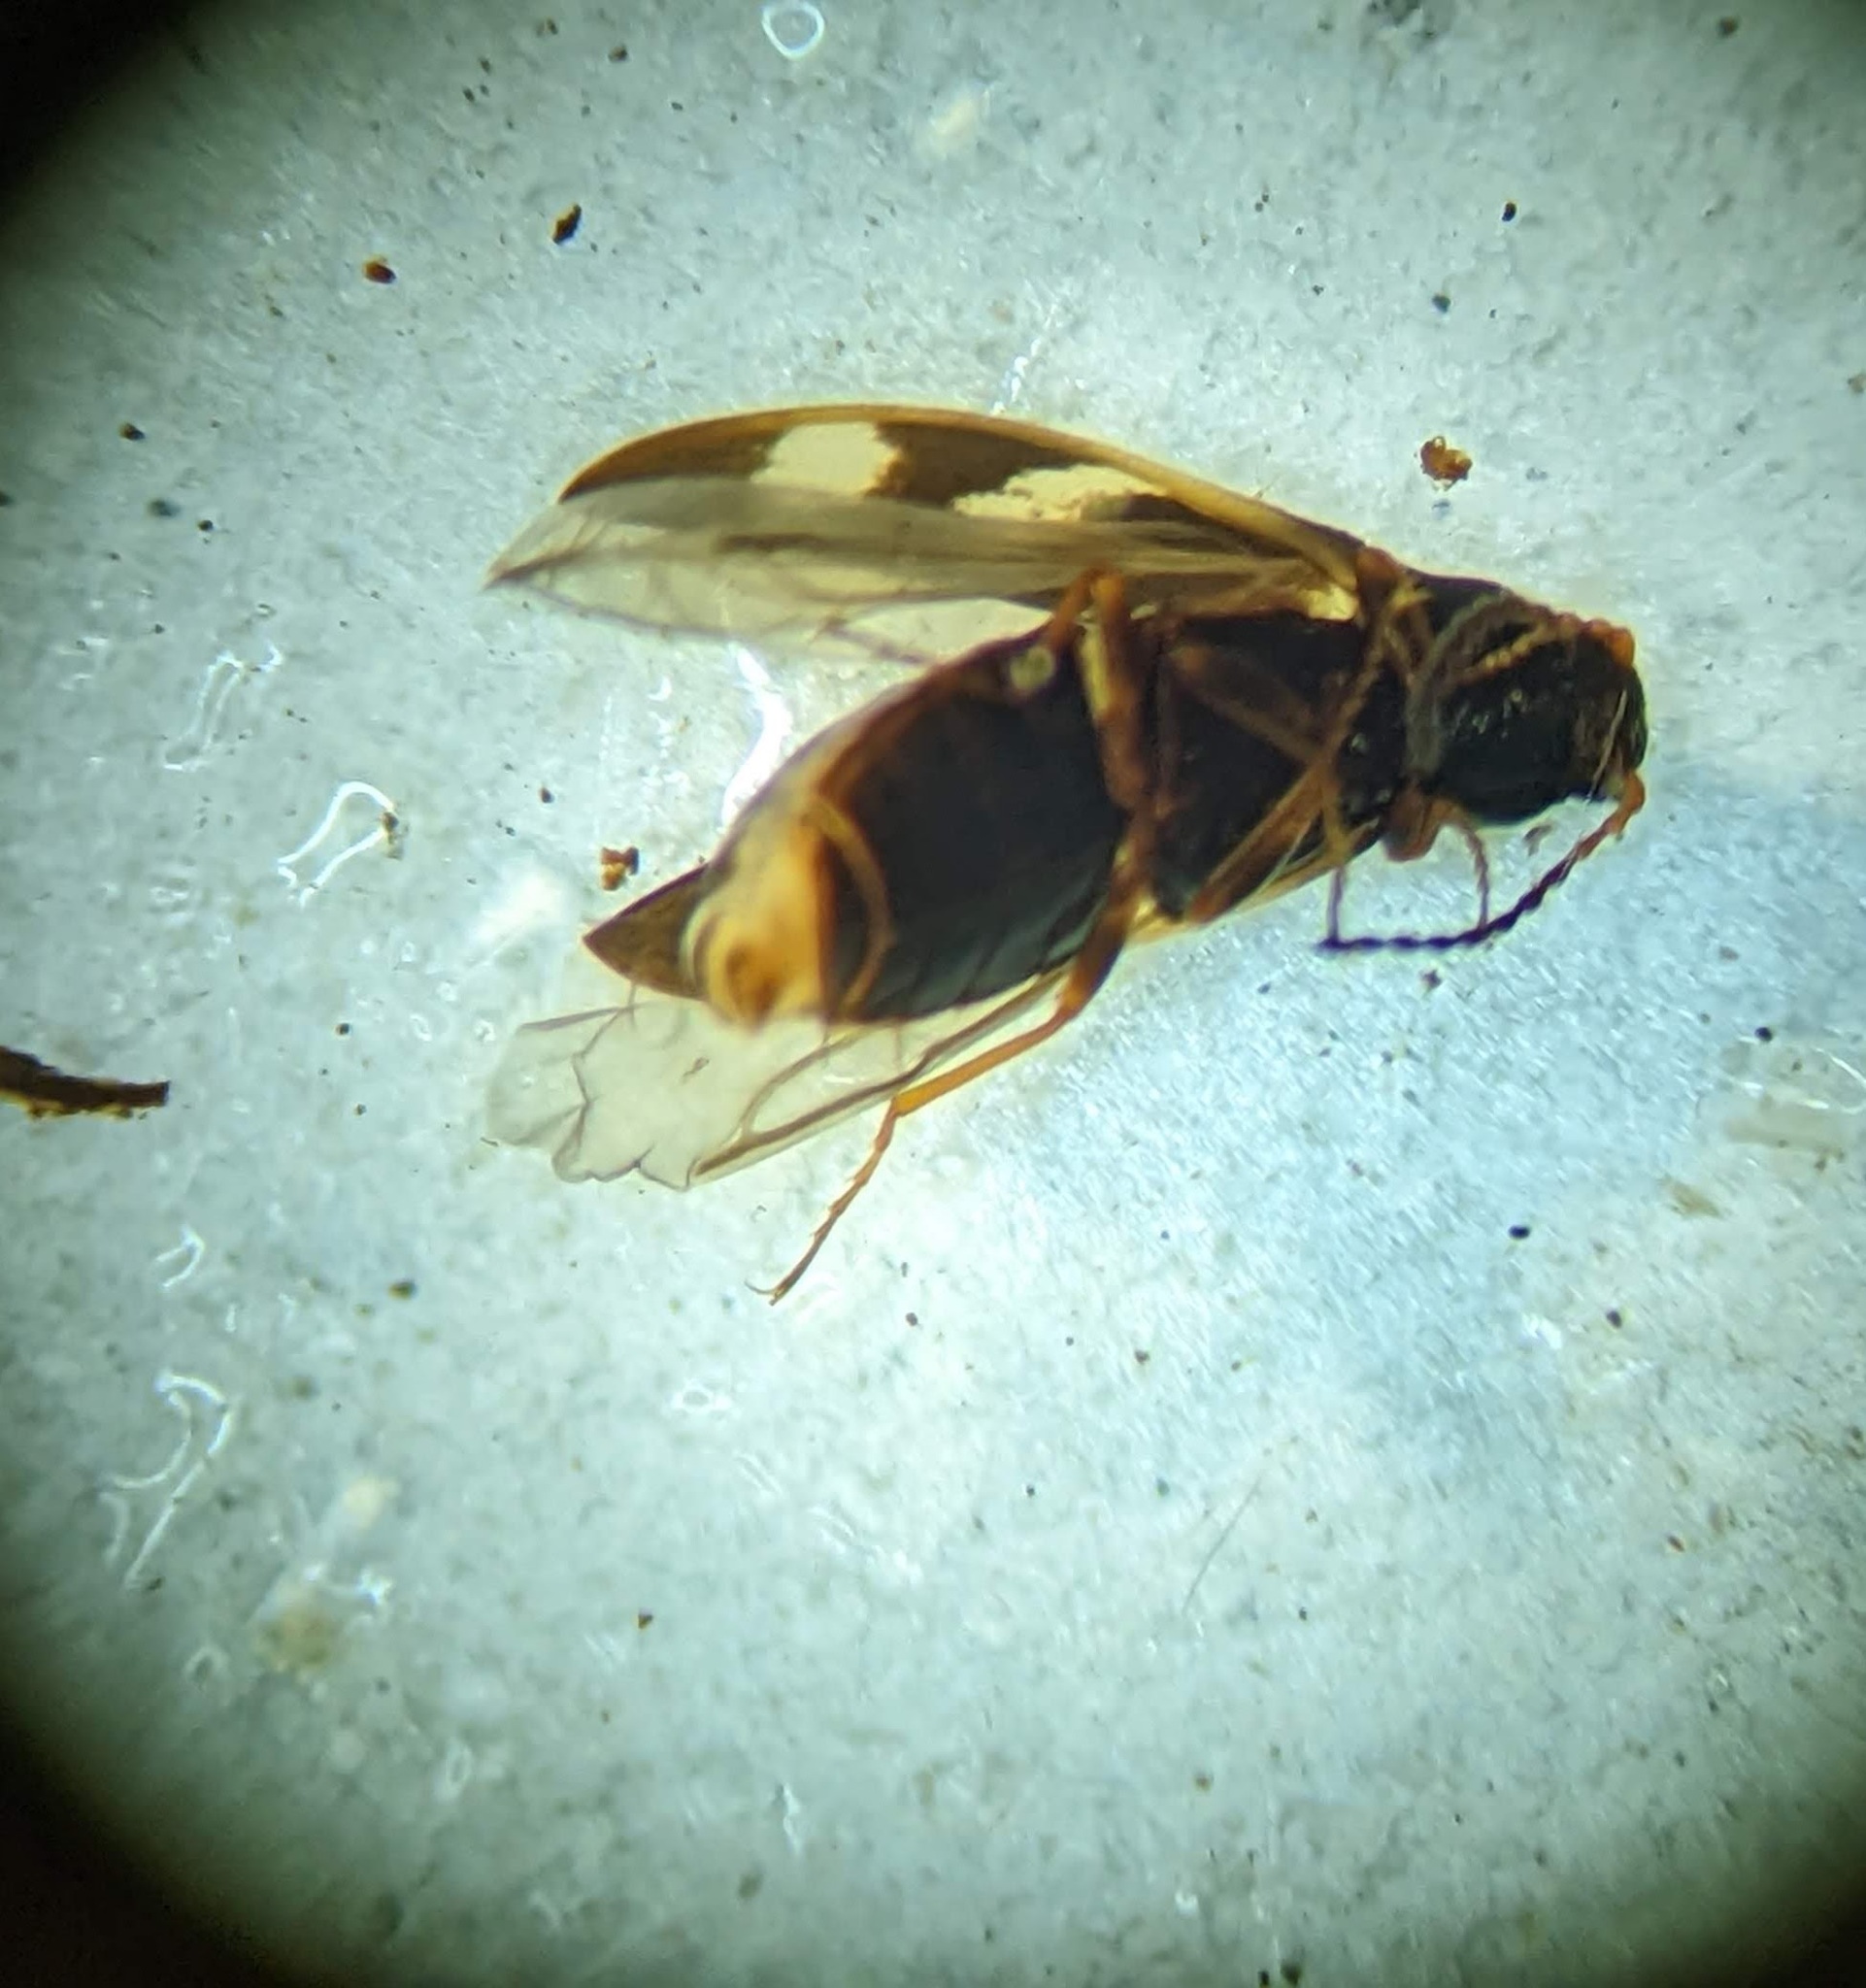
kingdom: Animalia
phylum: Arthropoda
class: Insecta
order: Coleoptera
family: Elateridae
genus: Eanus
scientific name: Eanus maculipennis
